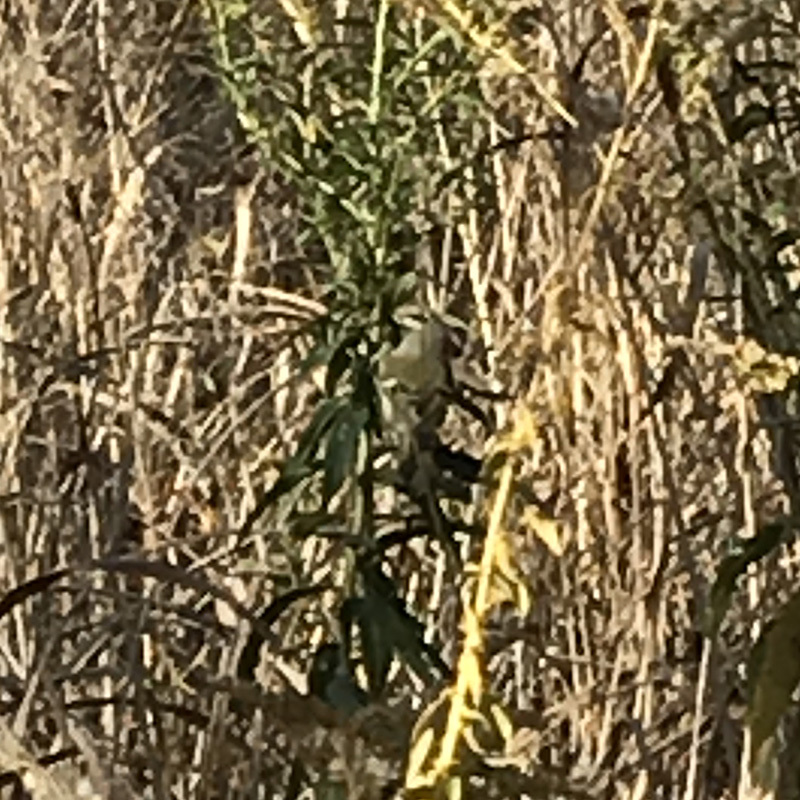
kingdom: Animalia
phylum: Chordata
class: Aves
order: Passeriformes
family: Regulidae
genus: Regulus
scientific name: Regulus calendula
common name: Ruby-crowned kinglet
